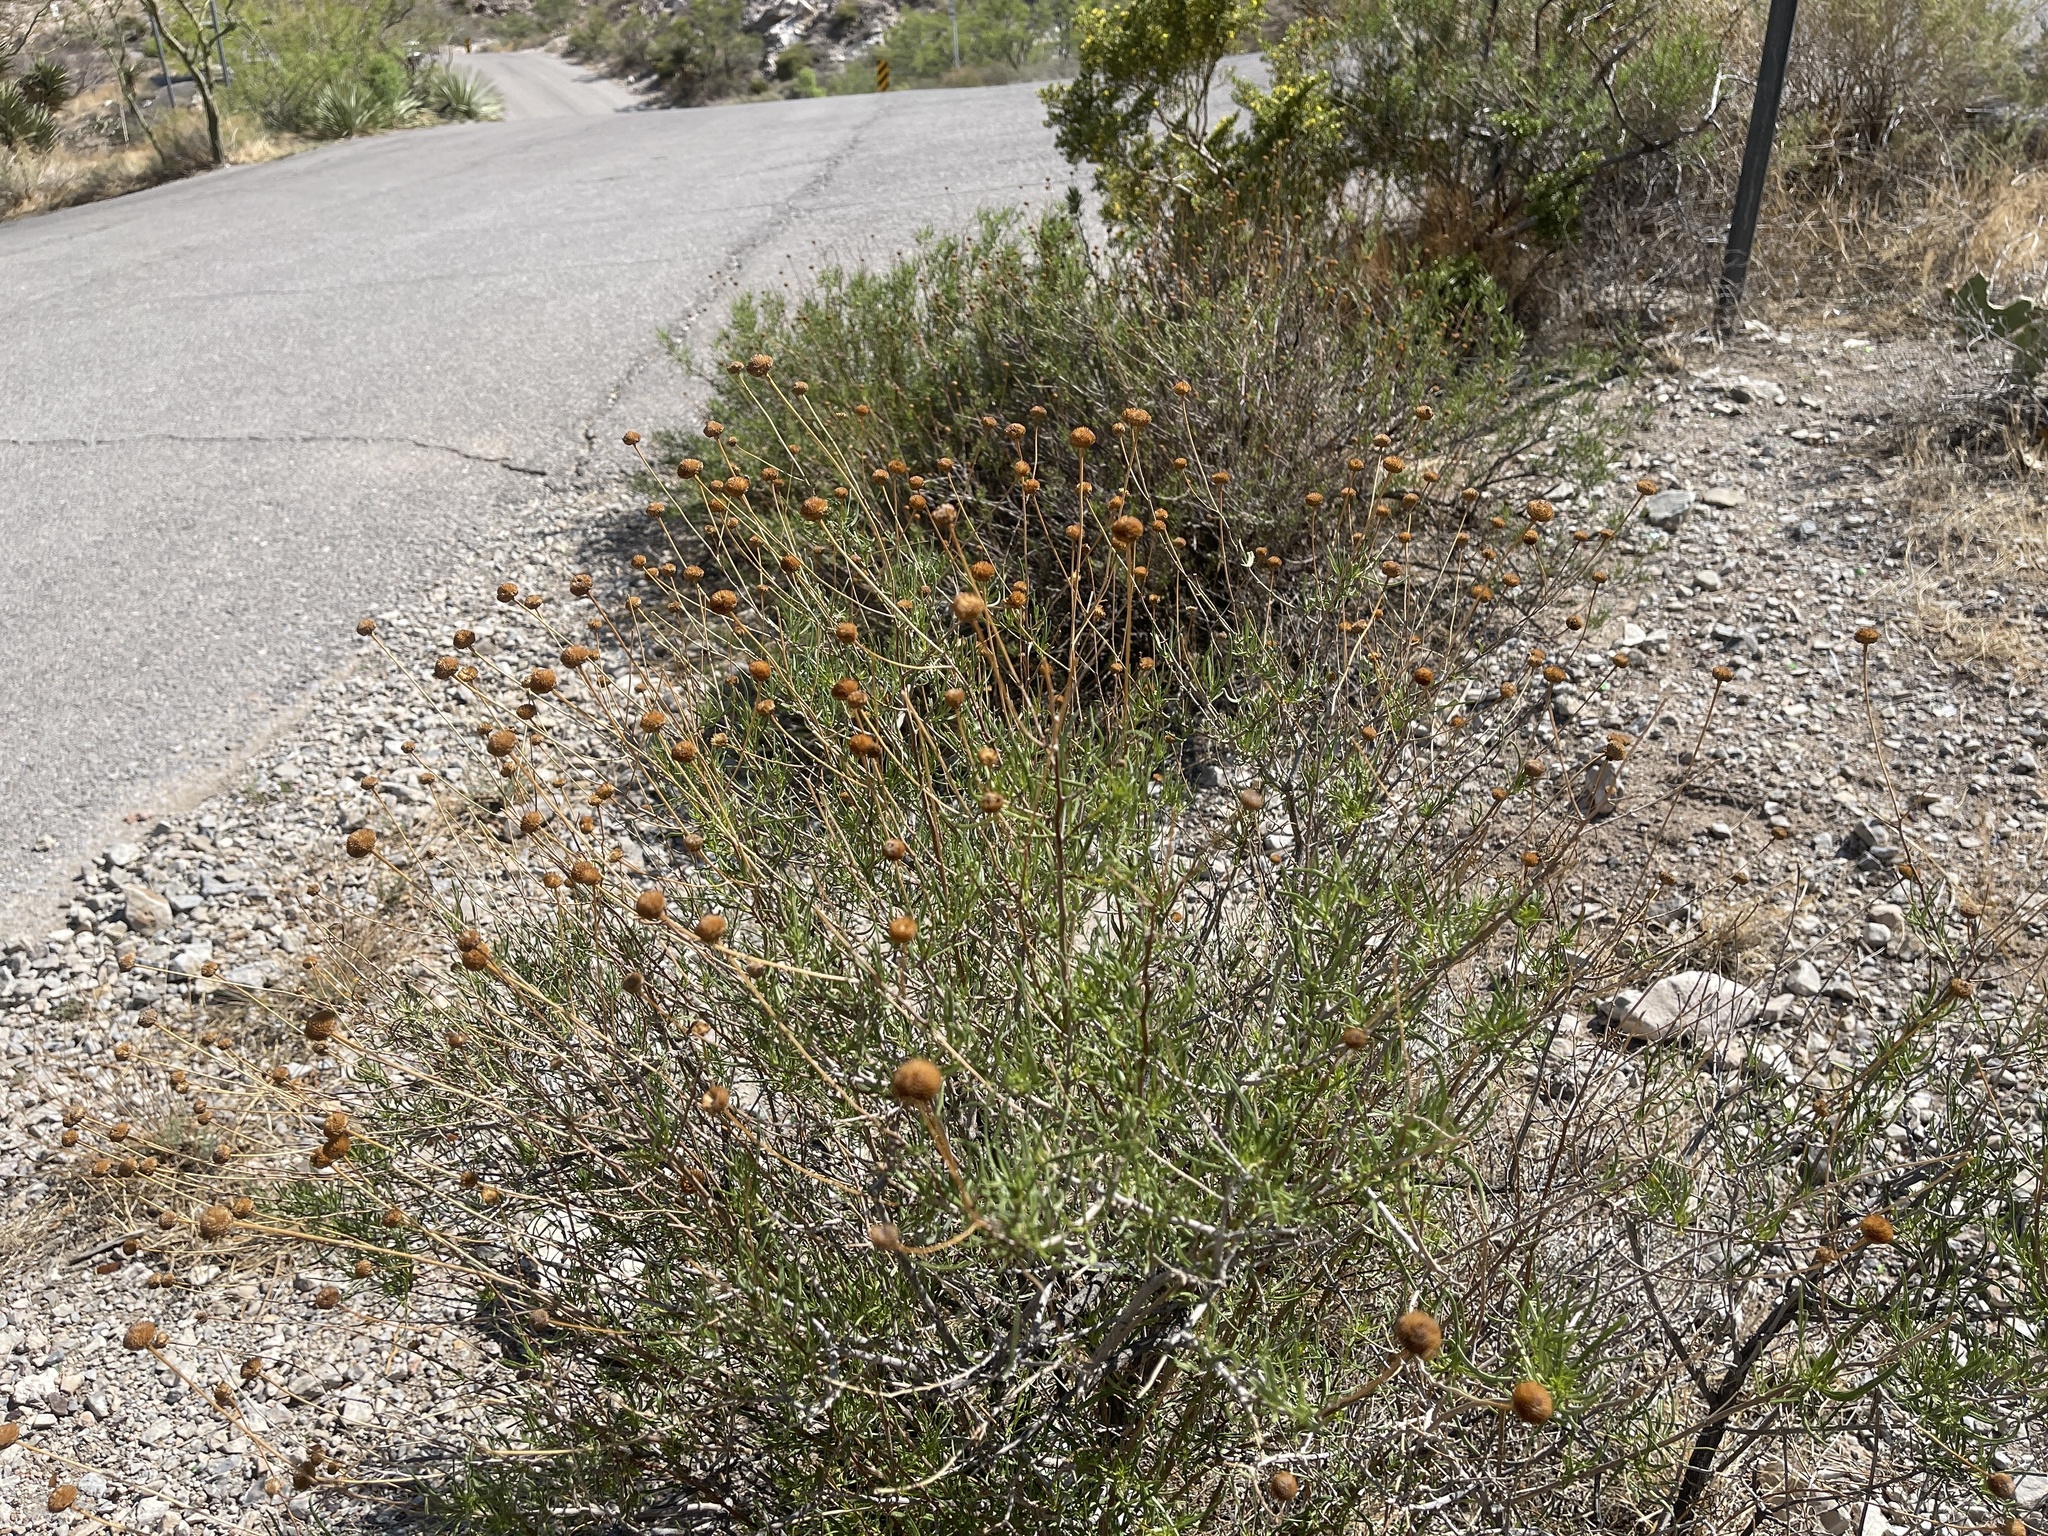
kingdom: Plantae
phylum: Tracheophyta
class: Magnoliopsida
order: Asterales
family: Asteraceae
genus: Sidneya
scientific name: Sidneya tenuifolia
